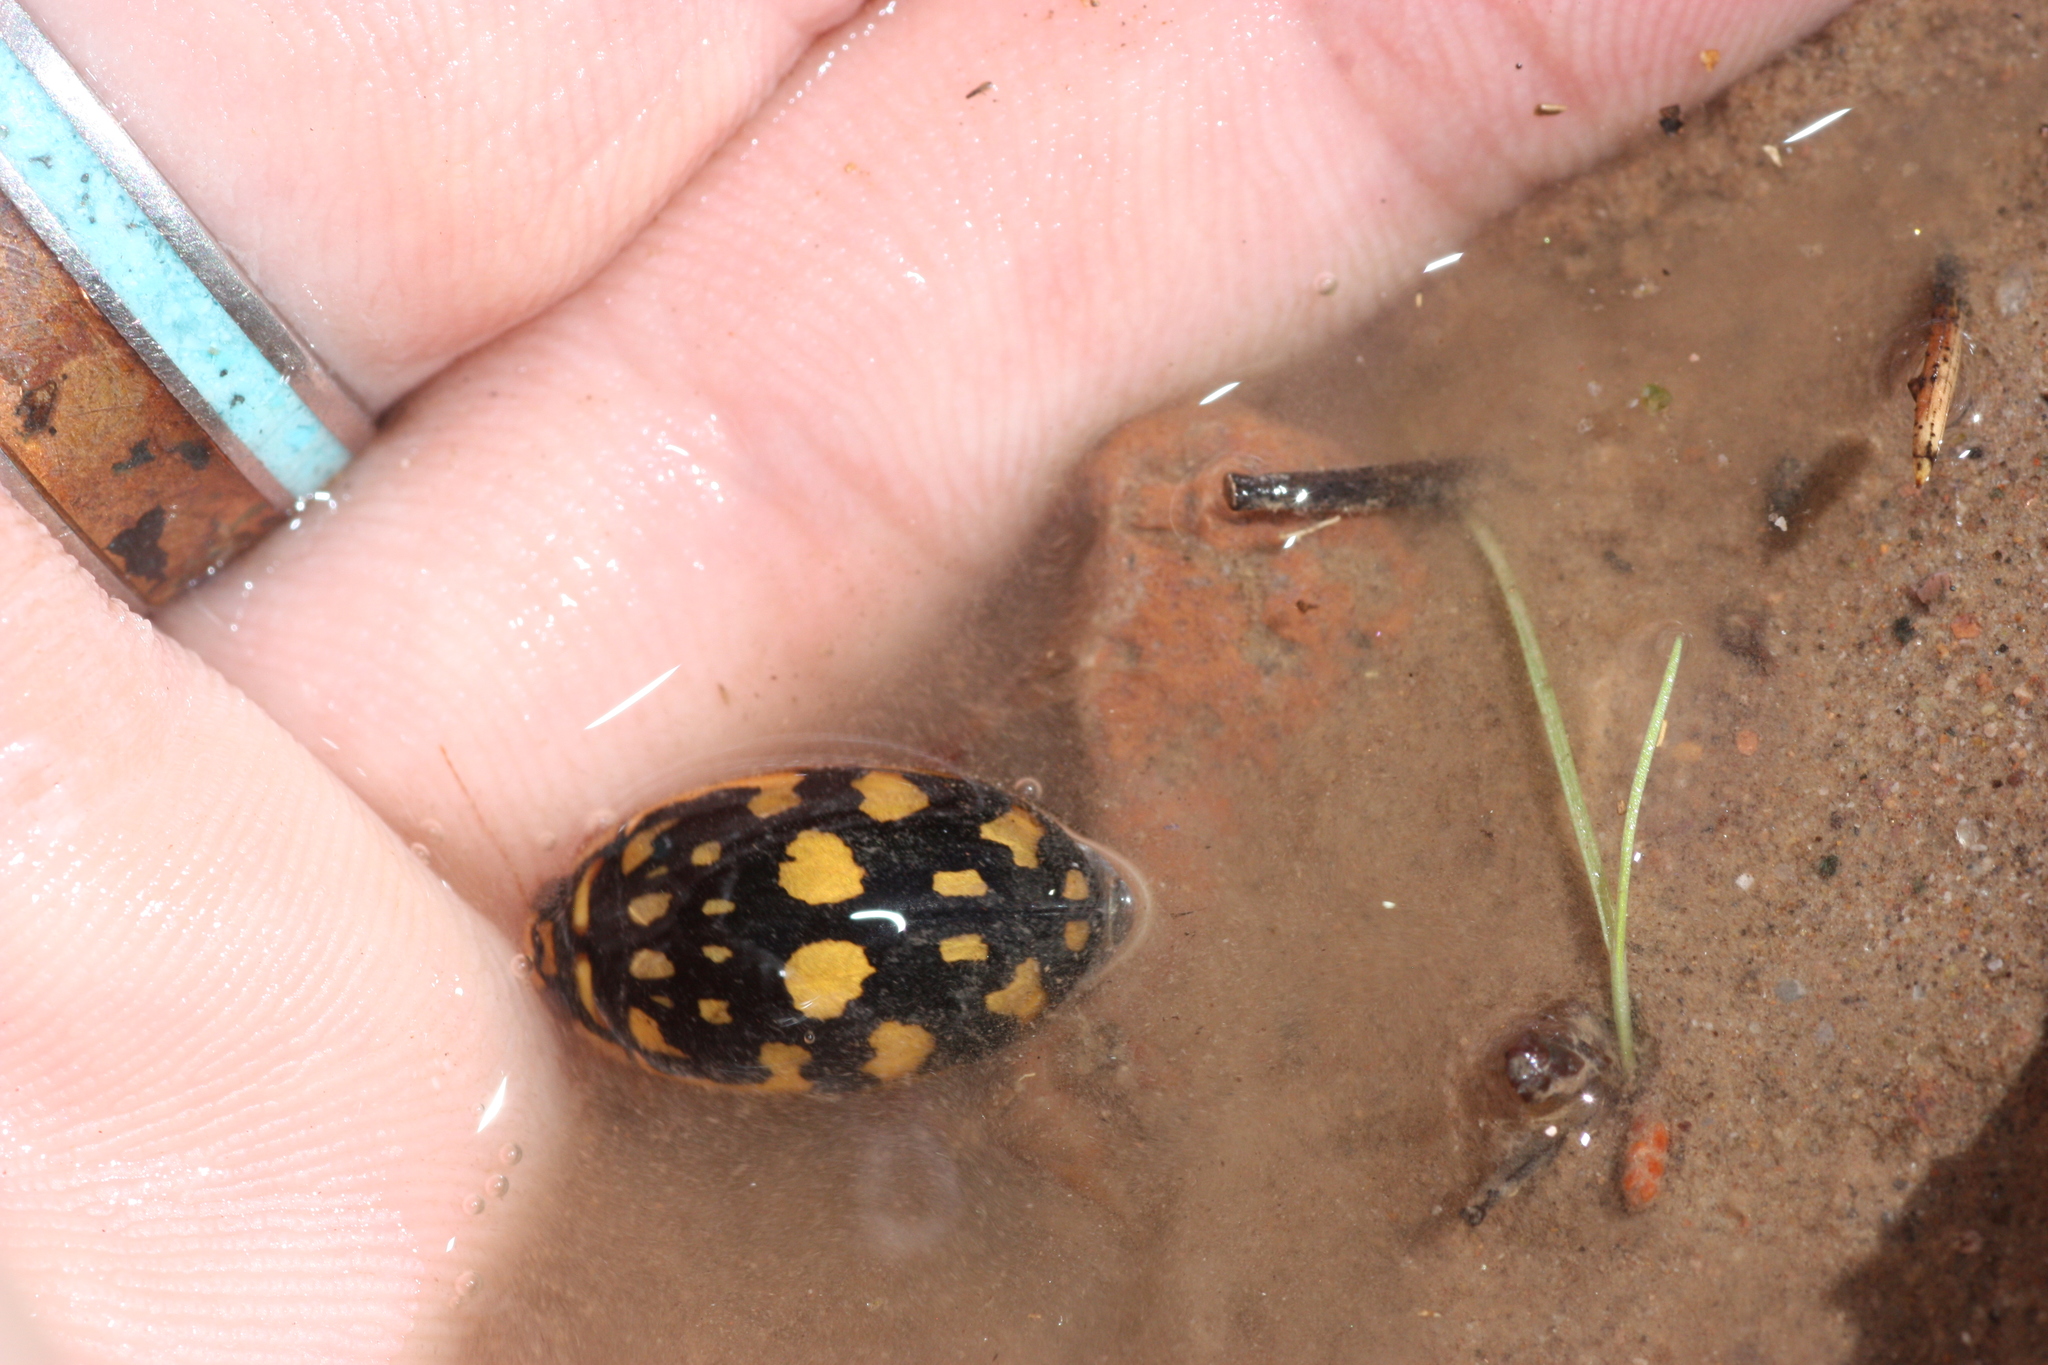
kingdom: Animalia
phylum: Arthropoda
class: Insecta
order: Coleoptera
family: Dytiscidae
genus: Thermonectus
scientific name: Thermonectus marmoratus
